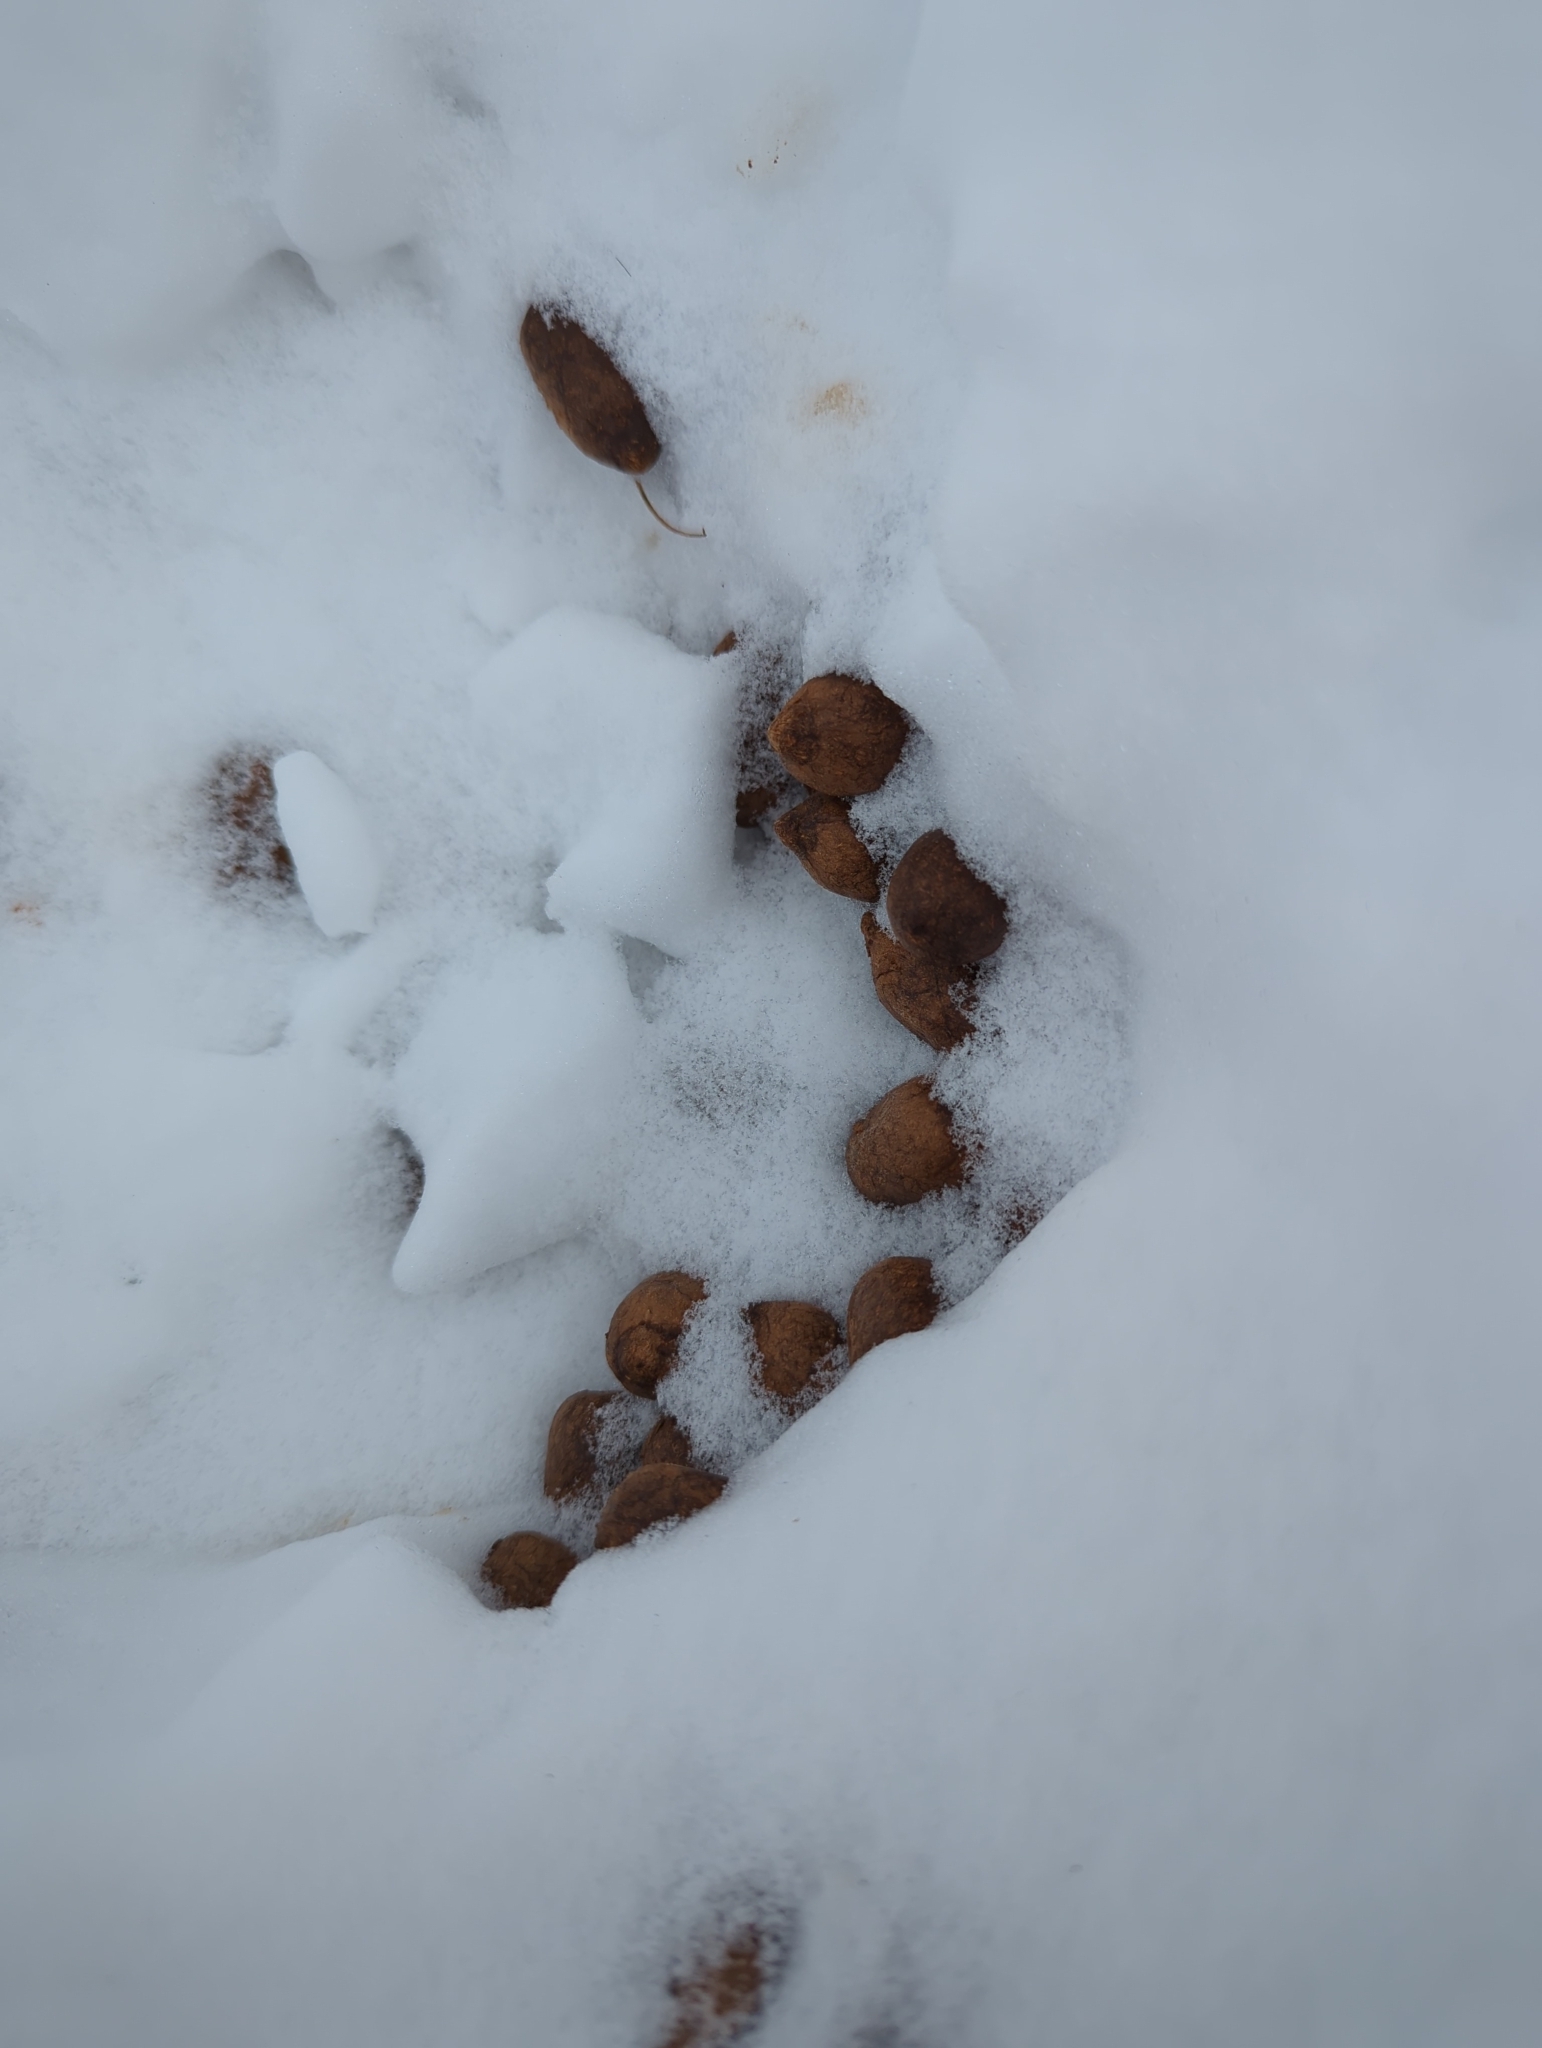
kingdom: Animalia
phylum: Chordata
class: Mammalia
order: Artiodactyla
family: Cervidae
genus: Alces
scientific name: Alces alces
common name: Moose
